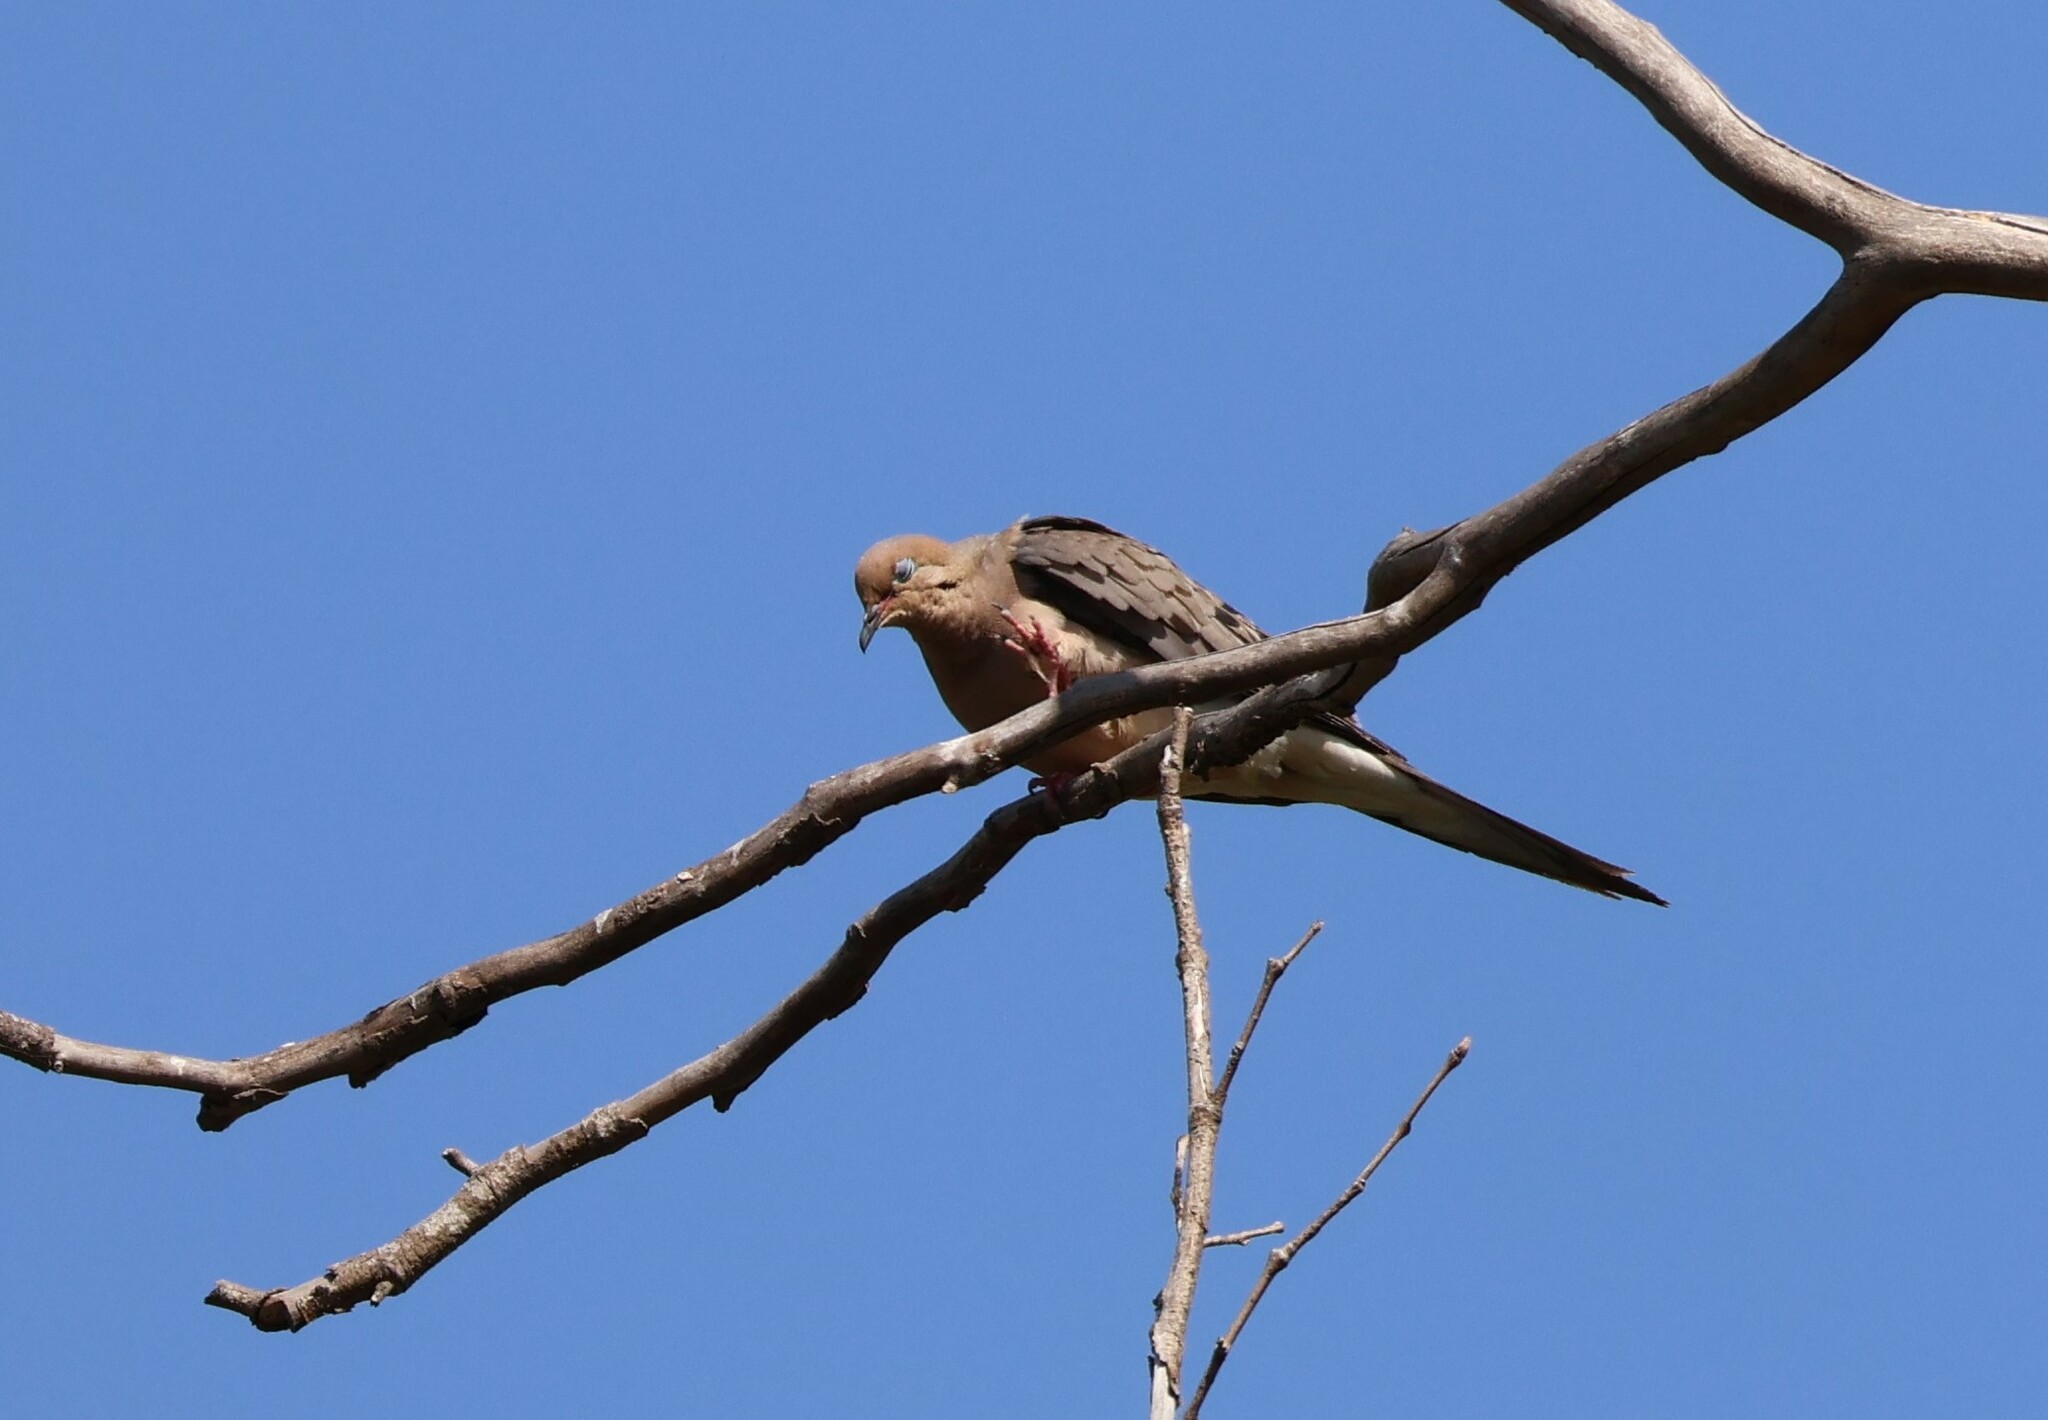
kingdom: Animalia
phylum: Chordata
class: Aves
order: Columbiformes
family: Columbidae
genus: Zenaida
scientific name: Zenaida macroura
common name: Mourning dove
